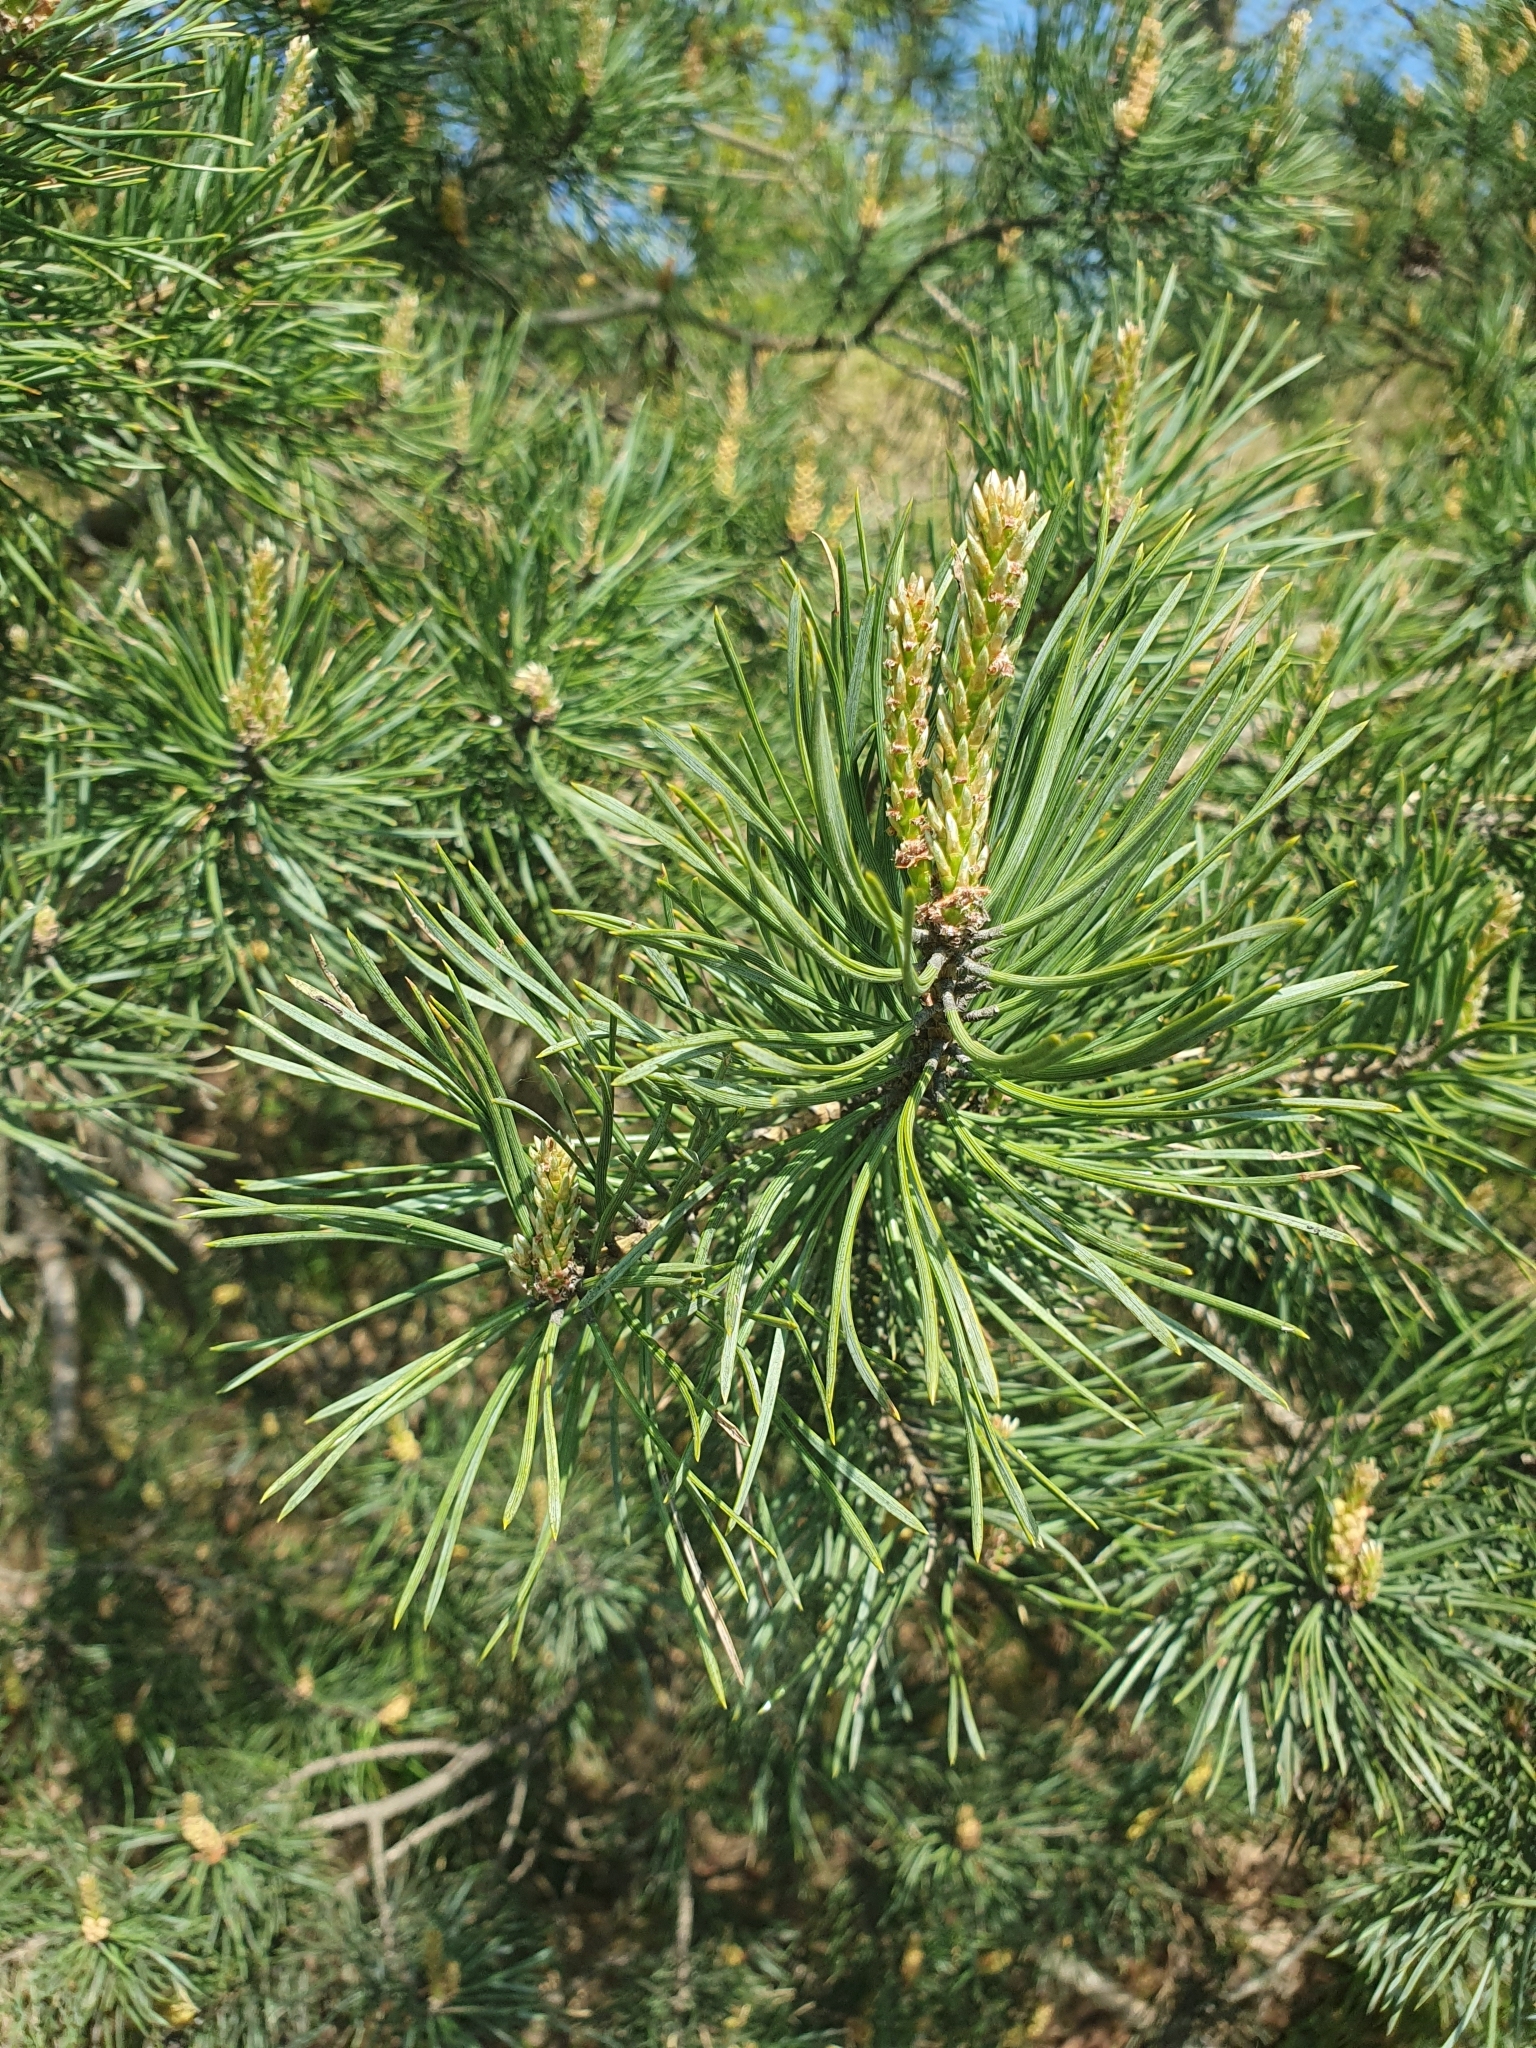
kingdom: Plantae
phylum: Tracheophyta
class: Pinopsida
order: Pinales
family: Pinaceae
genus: Pinus
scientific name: Pinus sylvestris
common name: Scots pine
